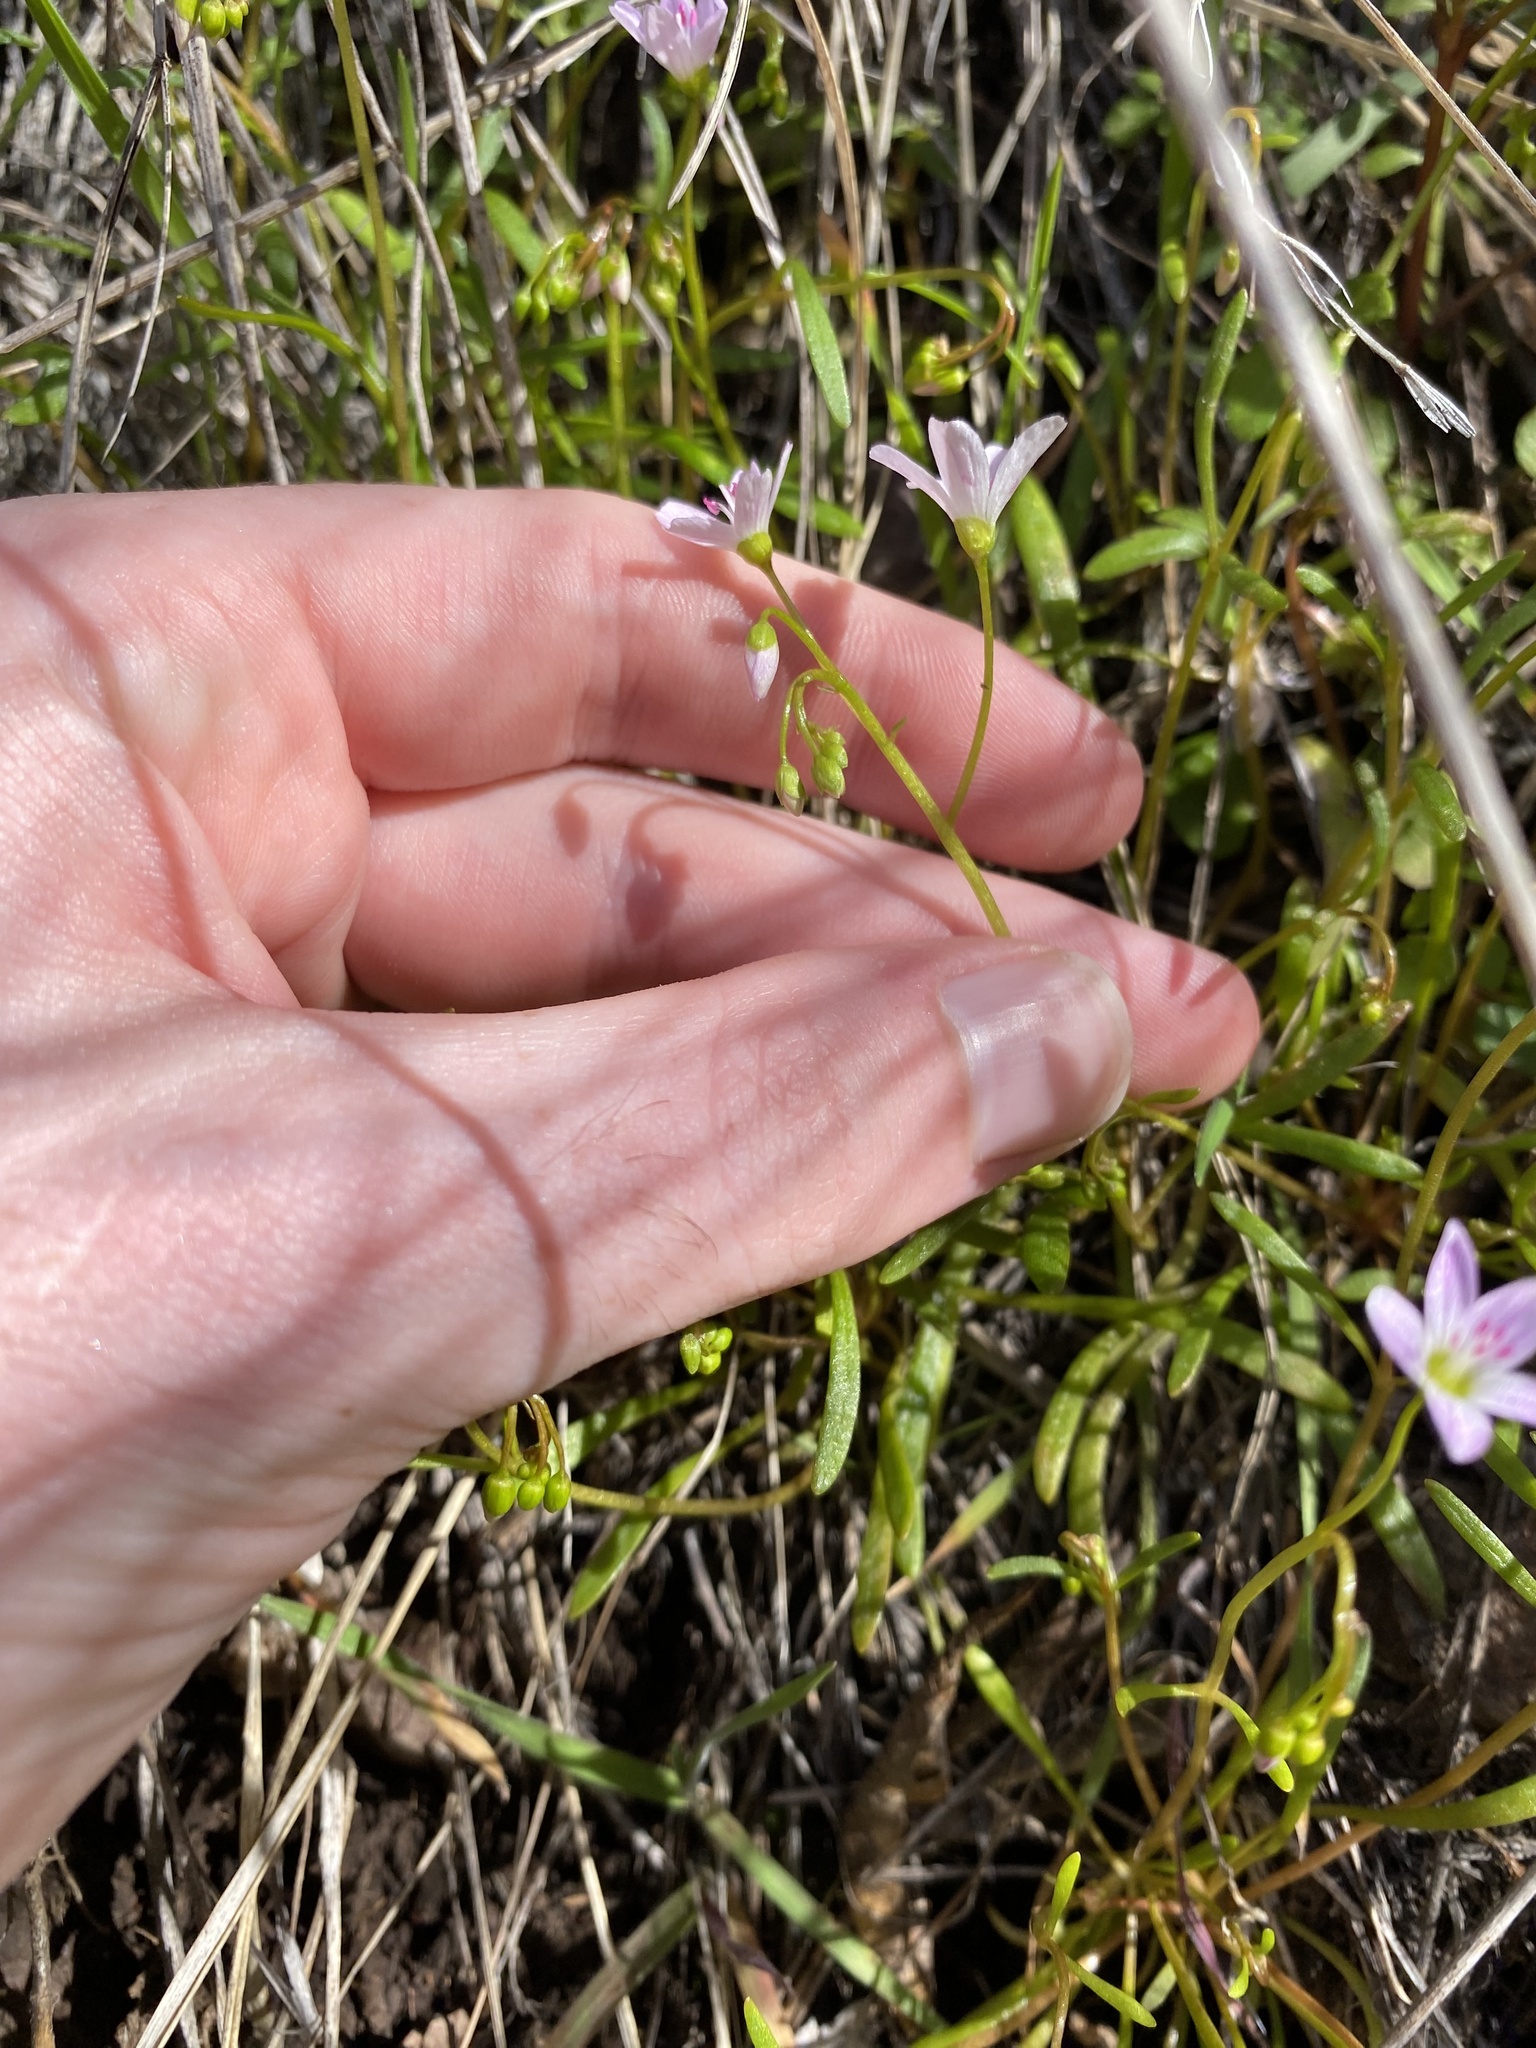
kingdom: Plantae
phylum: Tracheophyta
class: Magnoliopsida
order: Caryophyllales
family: Montiaceae
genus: Claytonia
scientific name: Claytonia arenicola
